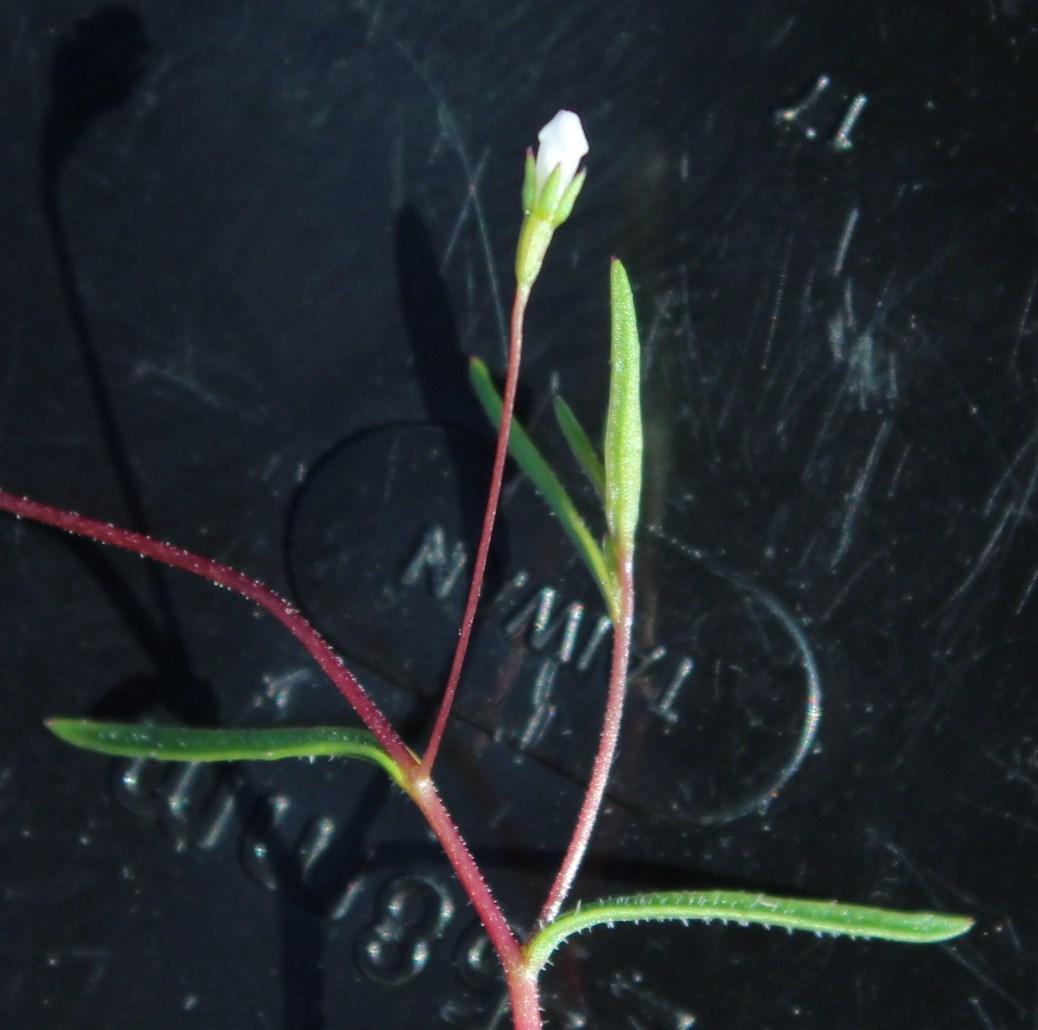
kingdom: Plantae
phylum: Tracheophyta
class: Magnoliopsida
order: Asterales
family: Campanulaceae
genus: Wahlenbergia
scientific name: Wahlenbergia exilis
